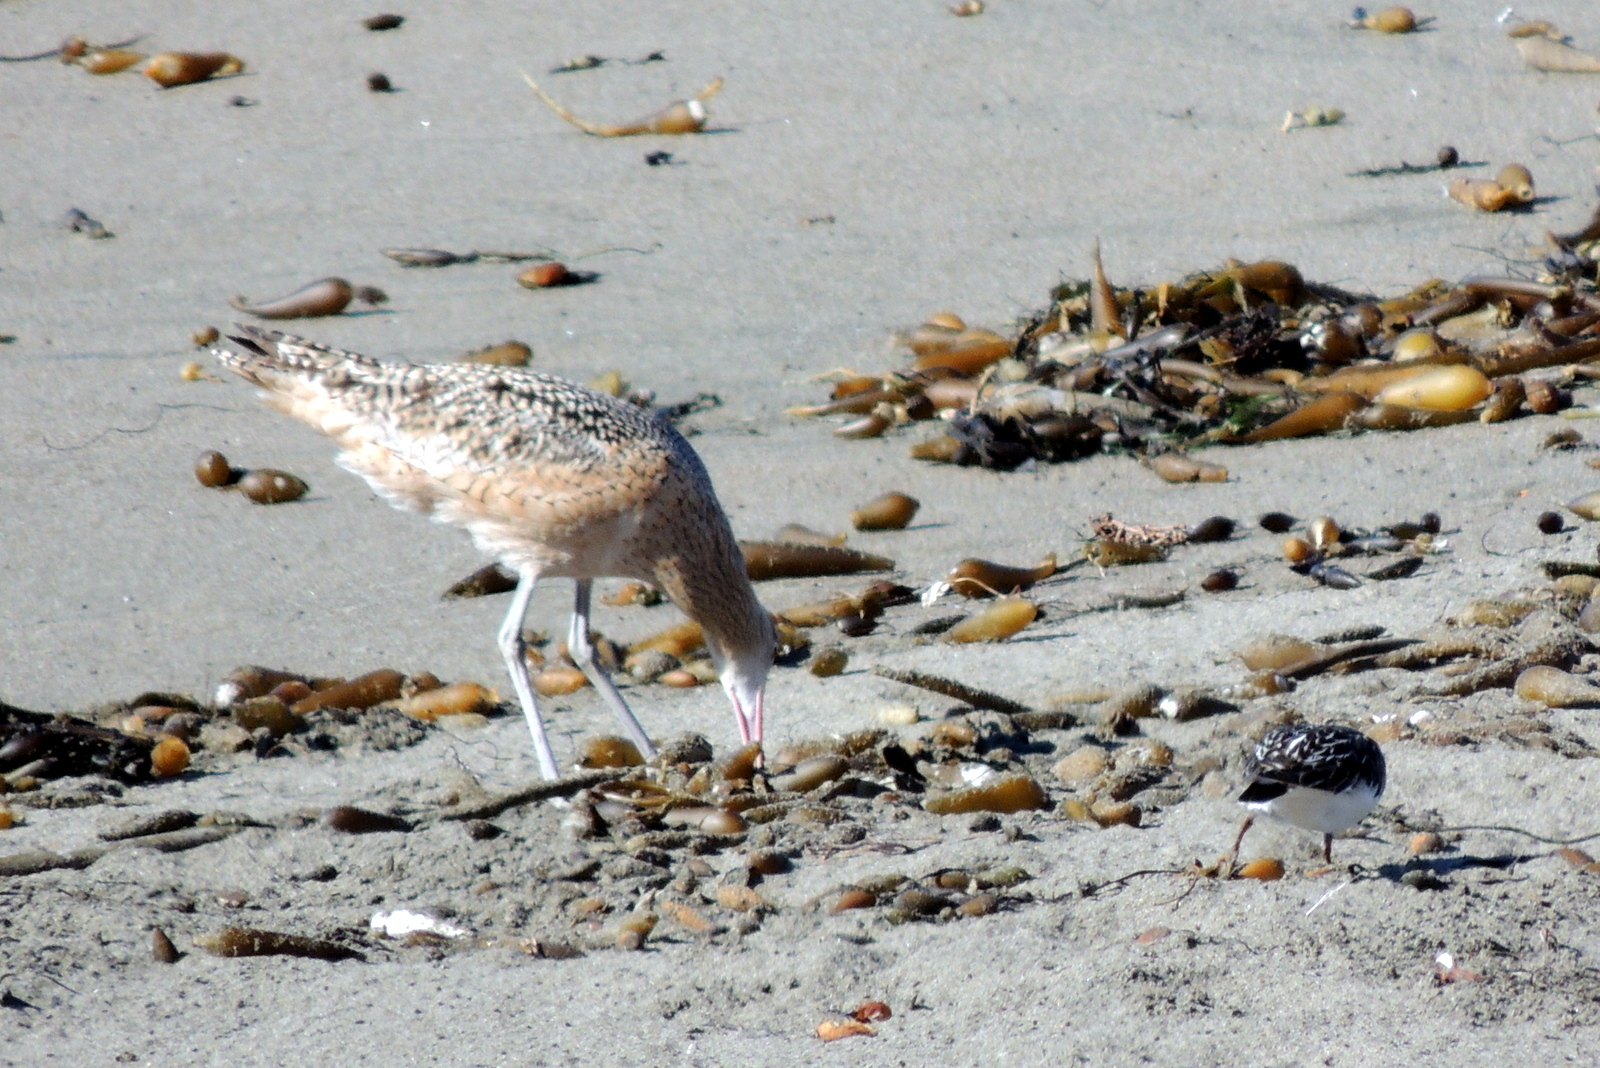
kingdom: Animalia
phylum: Chordata
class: Aves
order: Charadriiformes
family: Scolopacidae
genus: Arenaria
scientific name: Arenaria melanocephala
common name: Black turnstone
